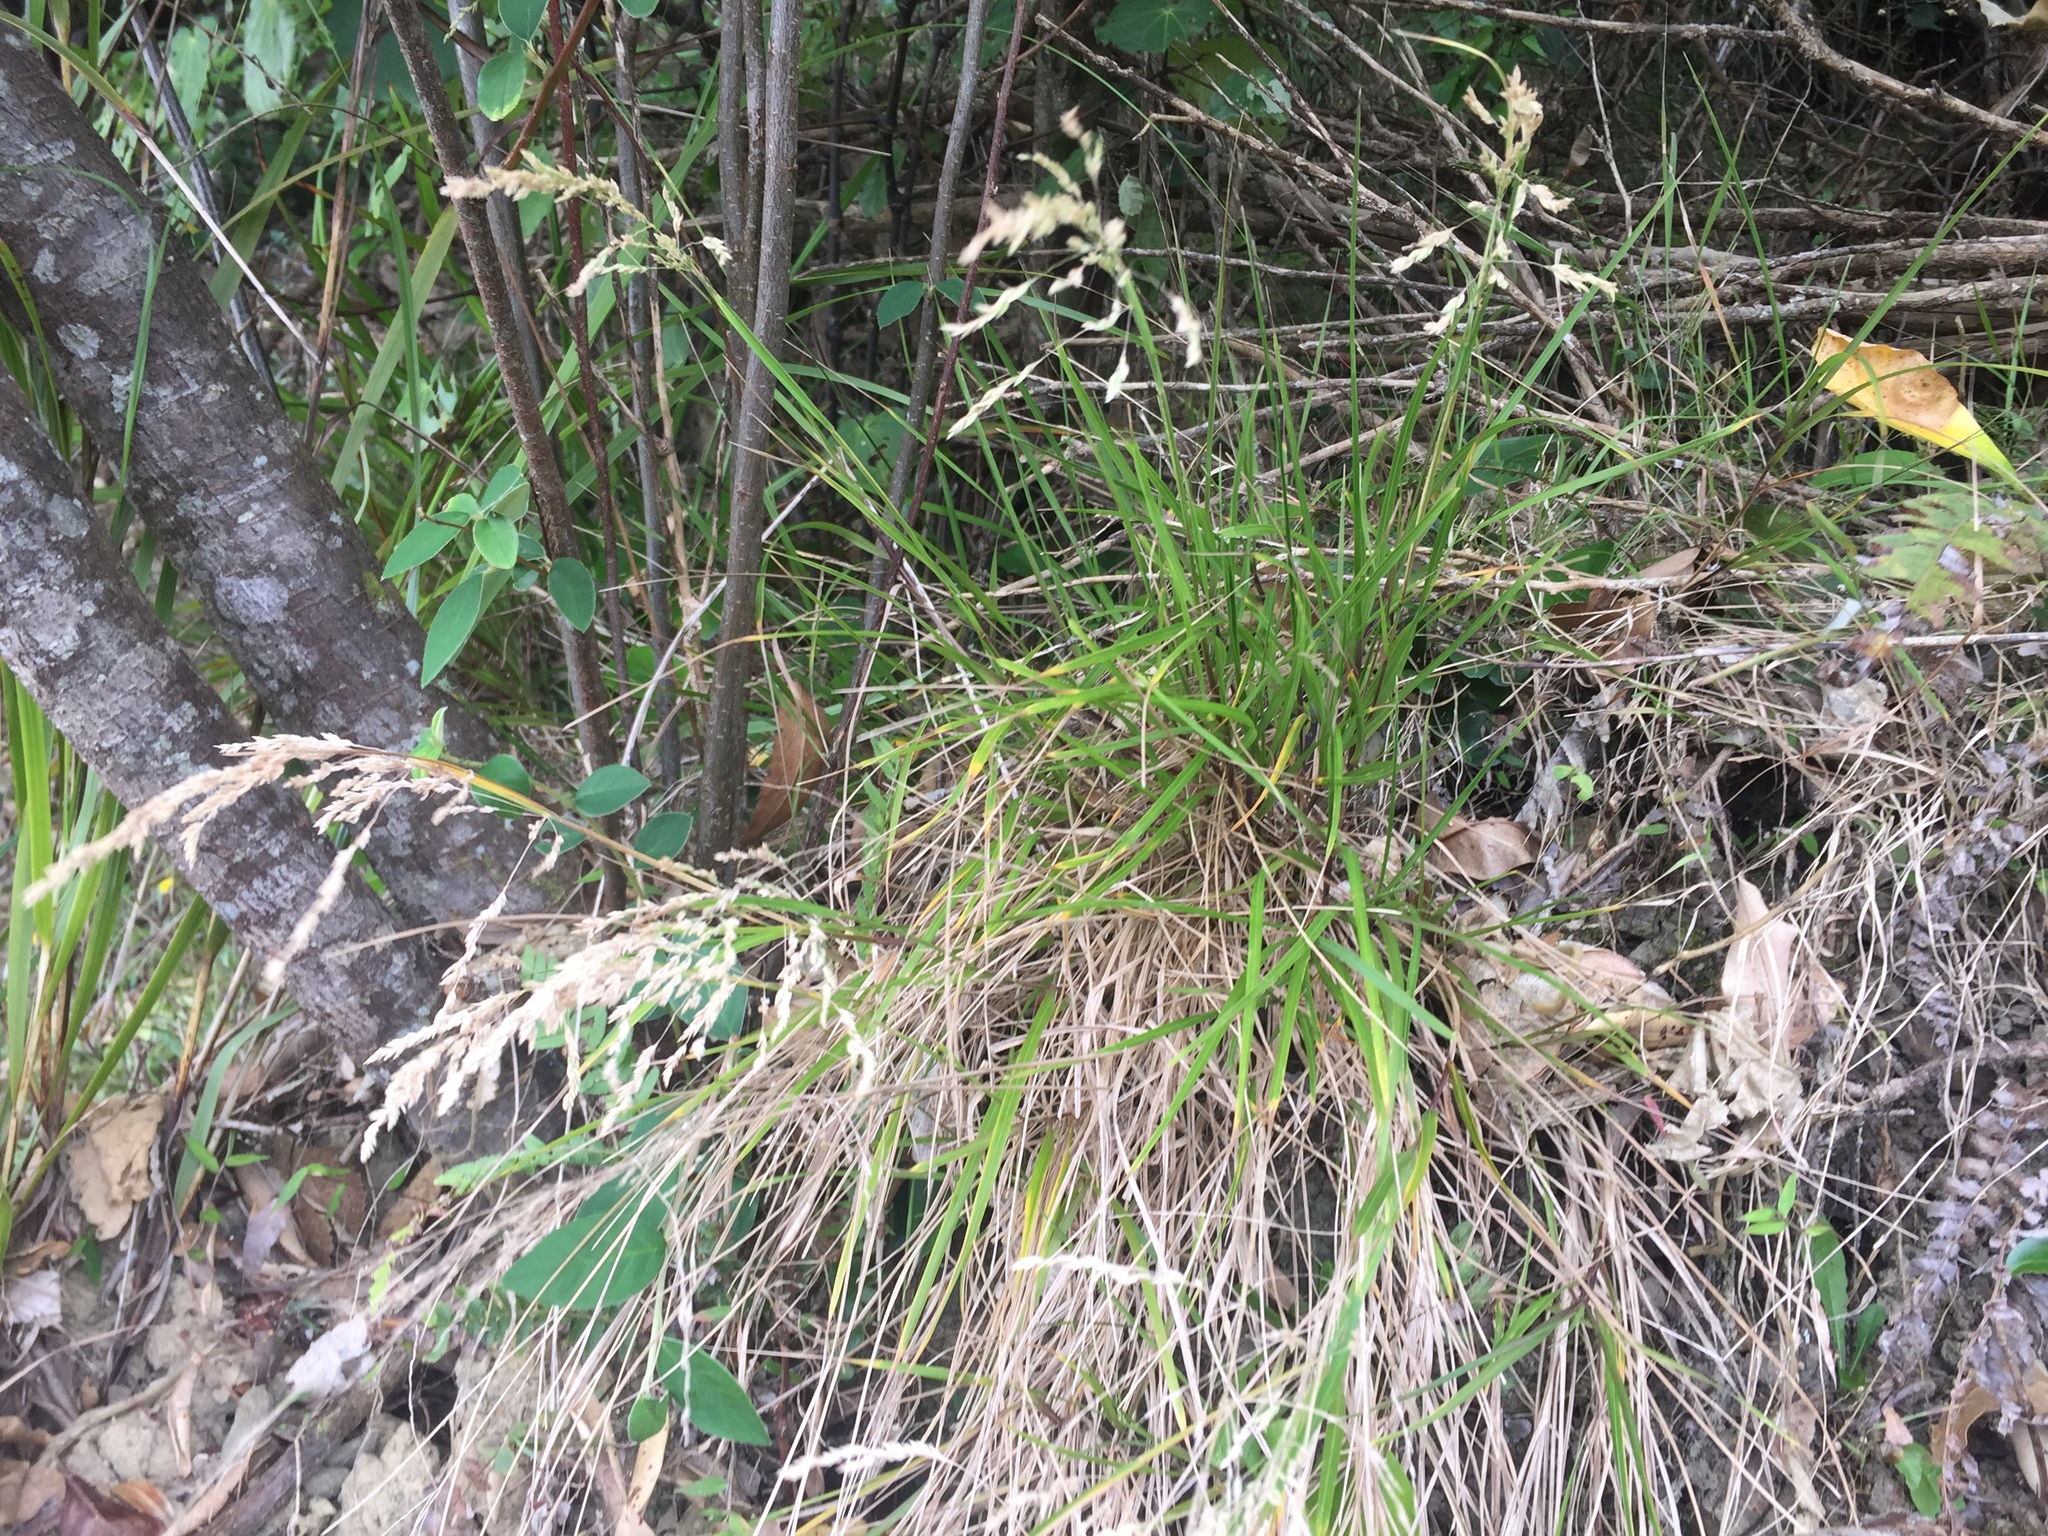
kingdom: Plantae
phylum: Tracheophyta
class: Liliopsida
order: Poales
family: Poaceae
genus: Poa
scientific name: Poa anceps
